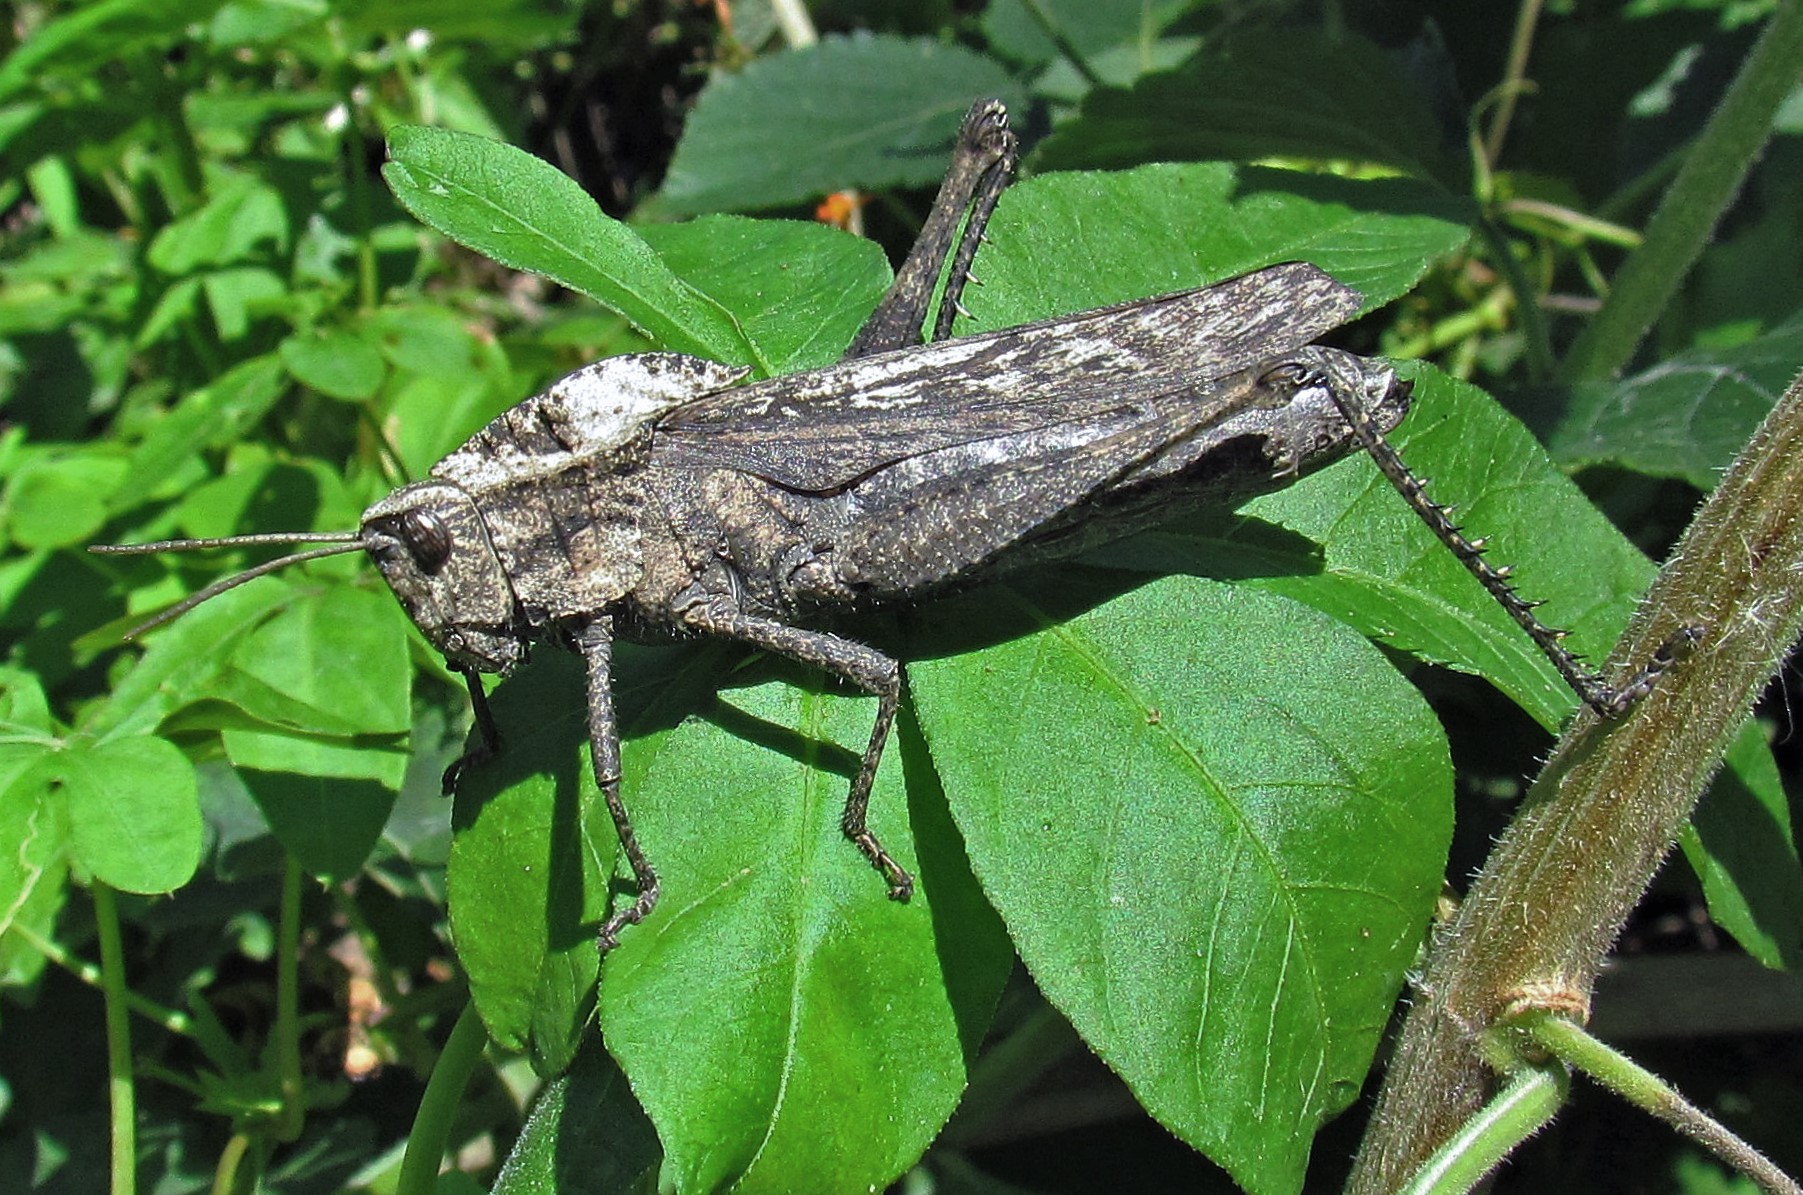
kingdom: Animalia
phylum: Arthropoda
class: Insecta
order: Orthoptera
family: Romaleidae
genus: Xyleus
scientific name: Xyleus discoideus
